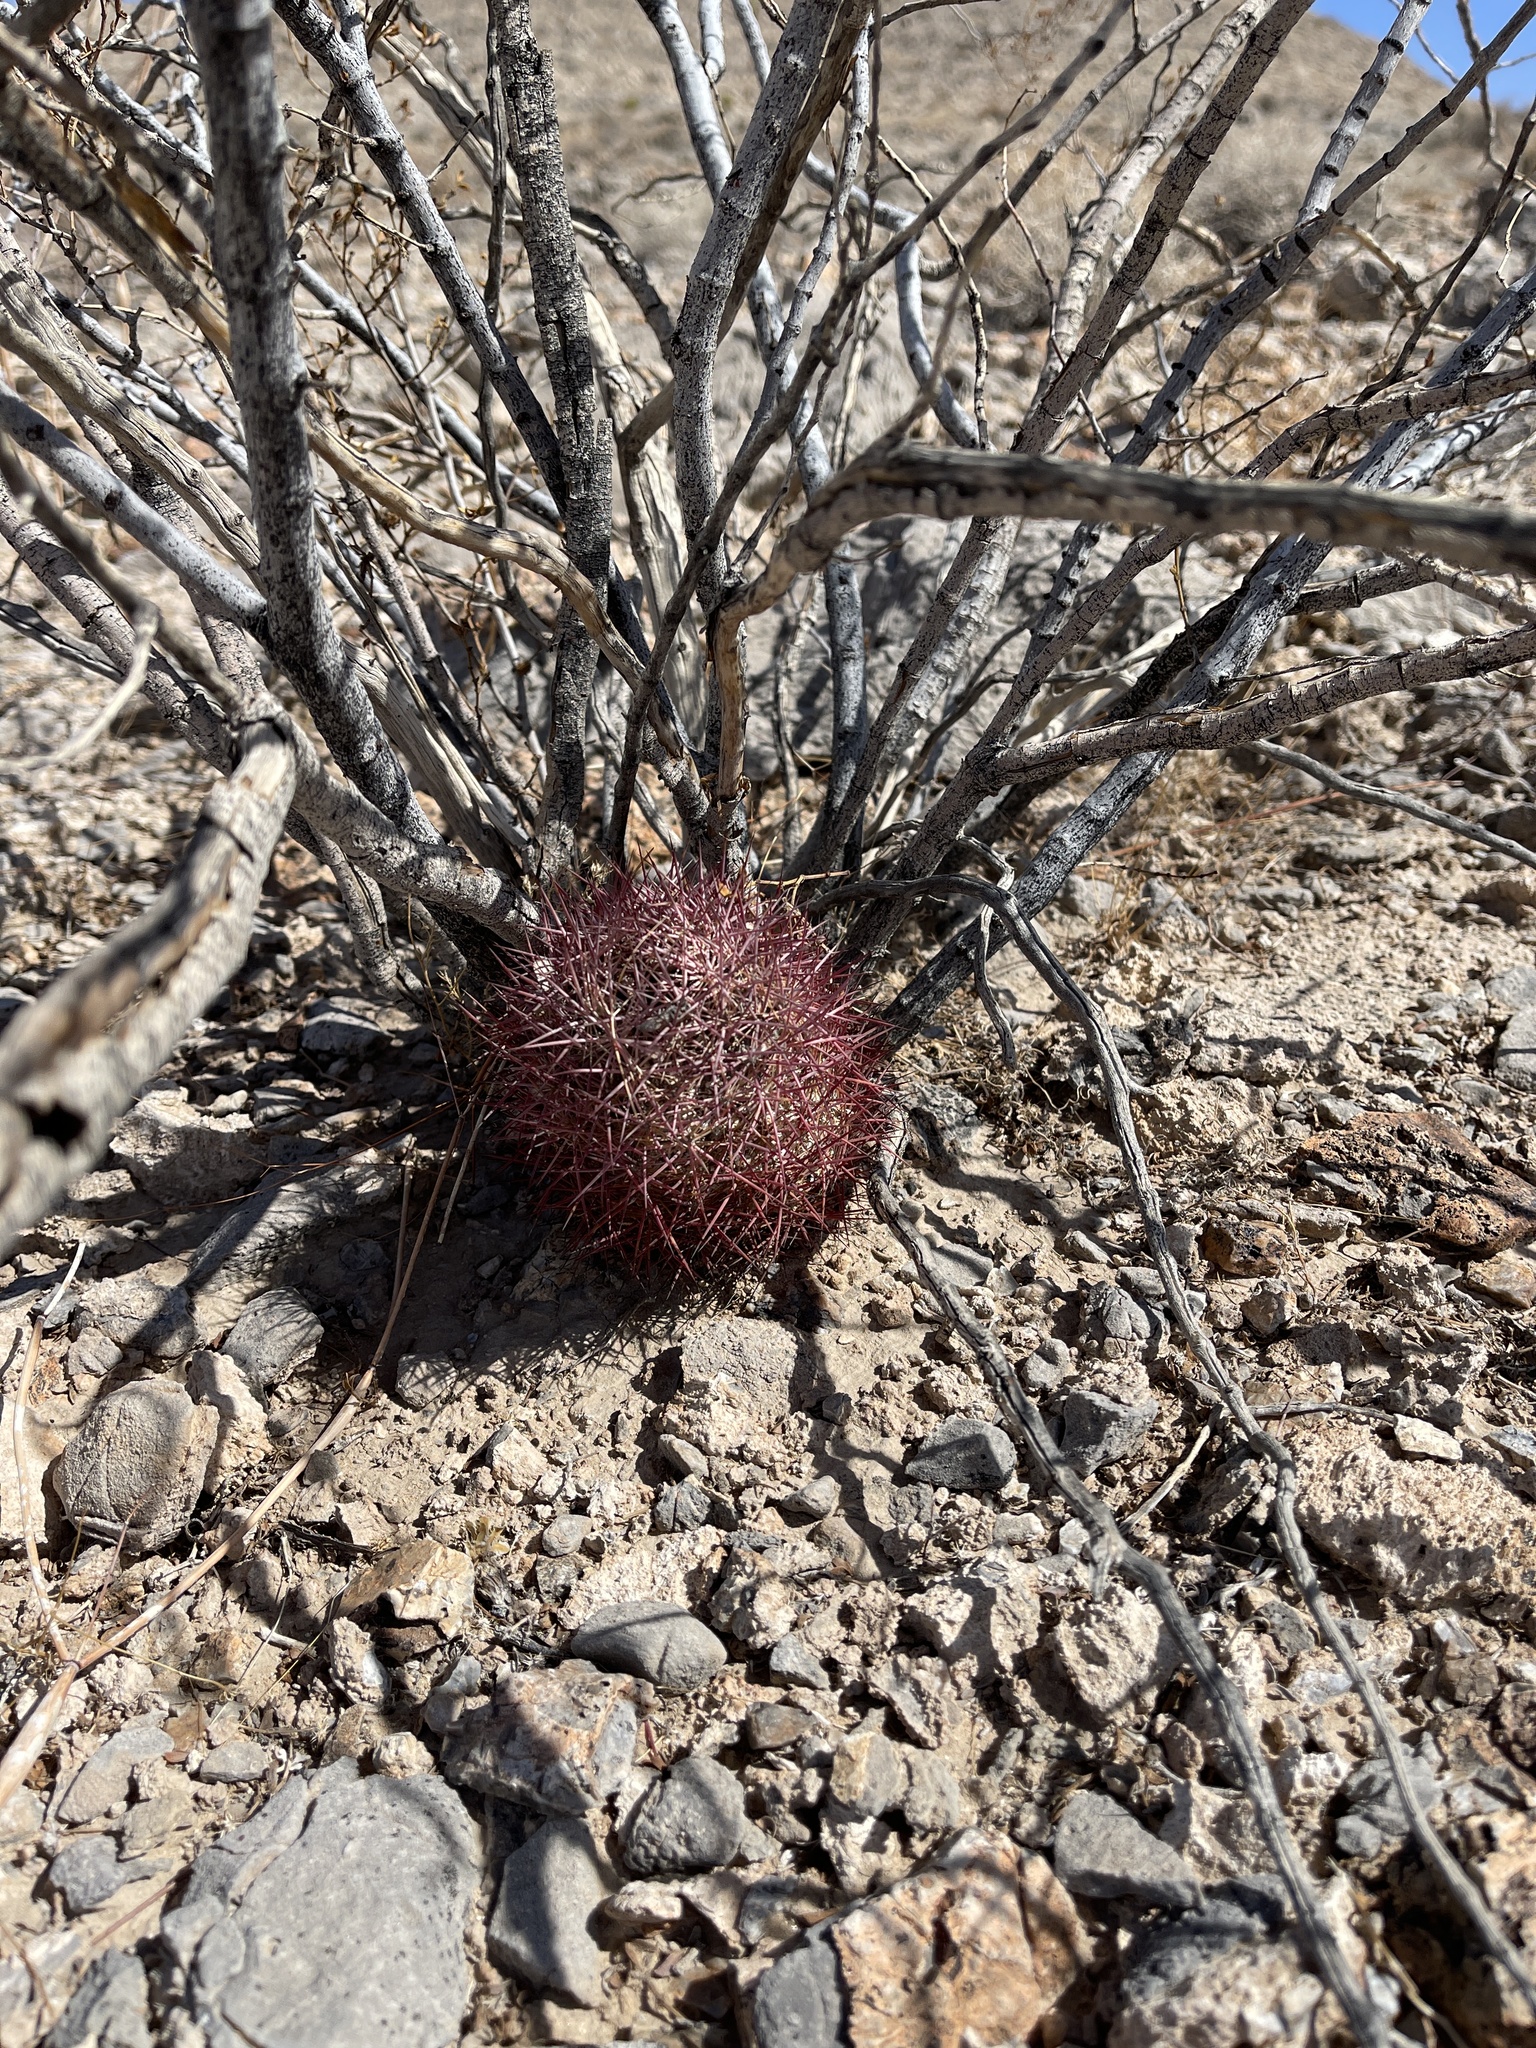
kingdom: Plantae
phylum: Tracheophyta
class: Magnoliopsida
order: Caryophyllales
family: Cactaceae
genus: Sclerocactus
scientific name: Sclerocactus johnsonii
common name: Eight-spine fishhook cactus
